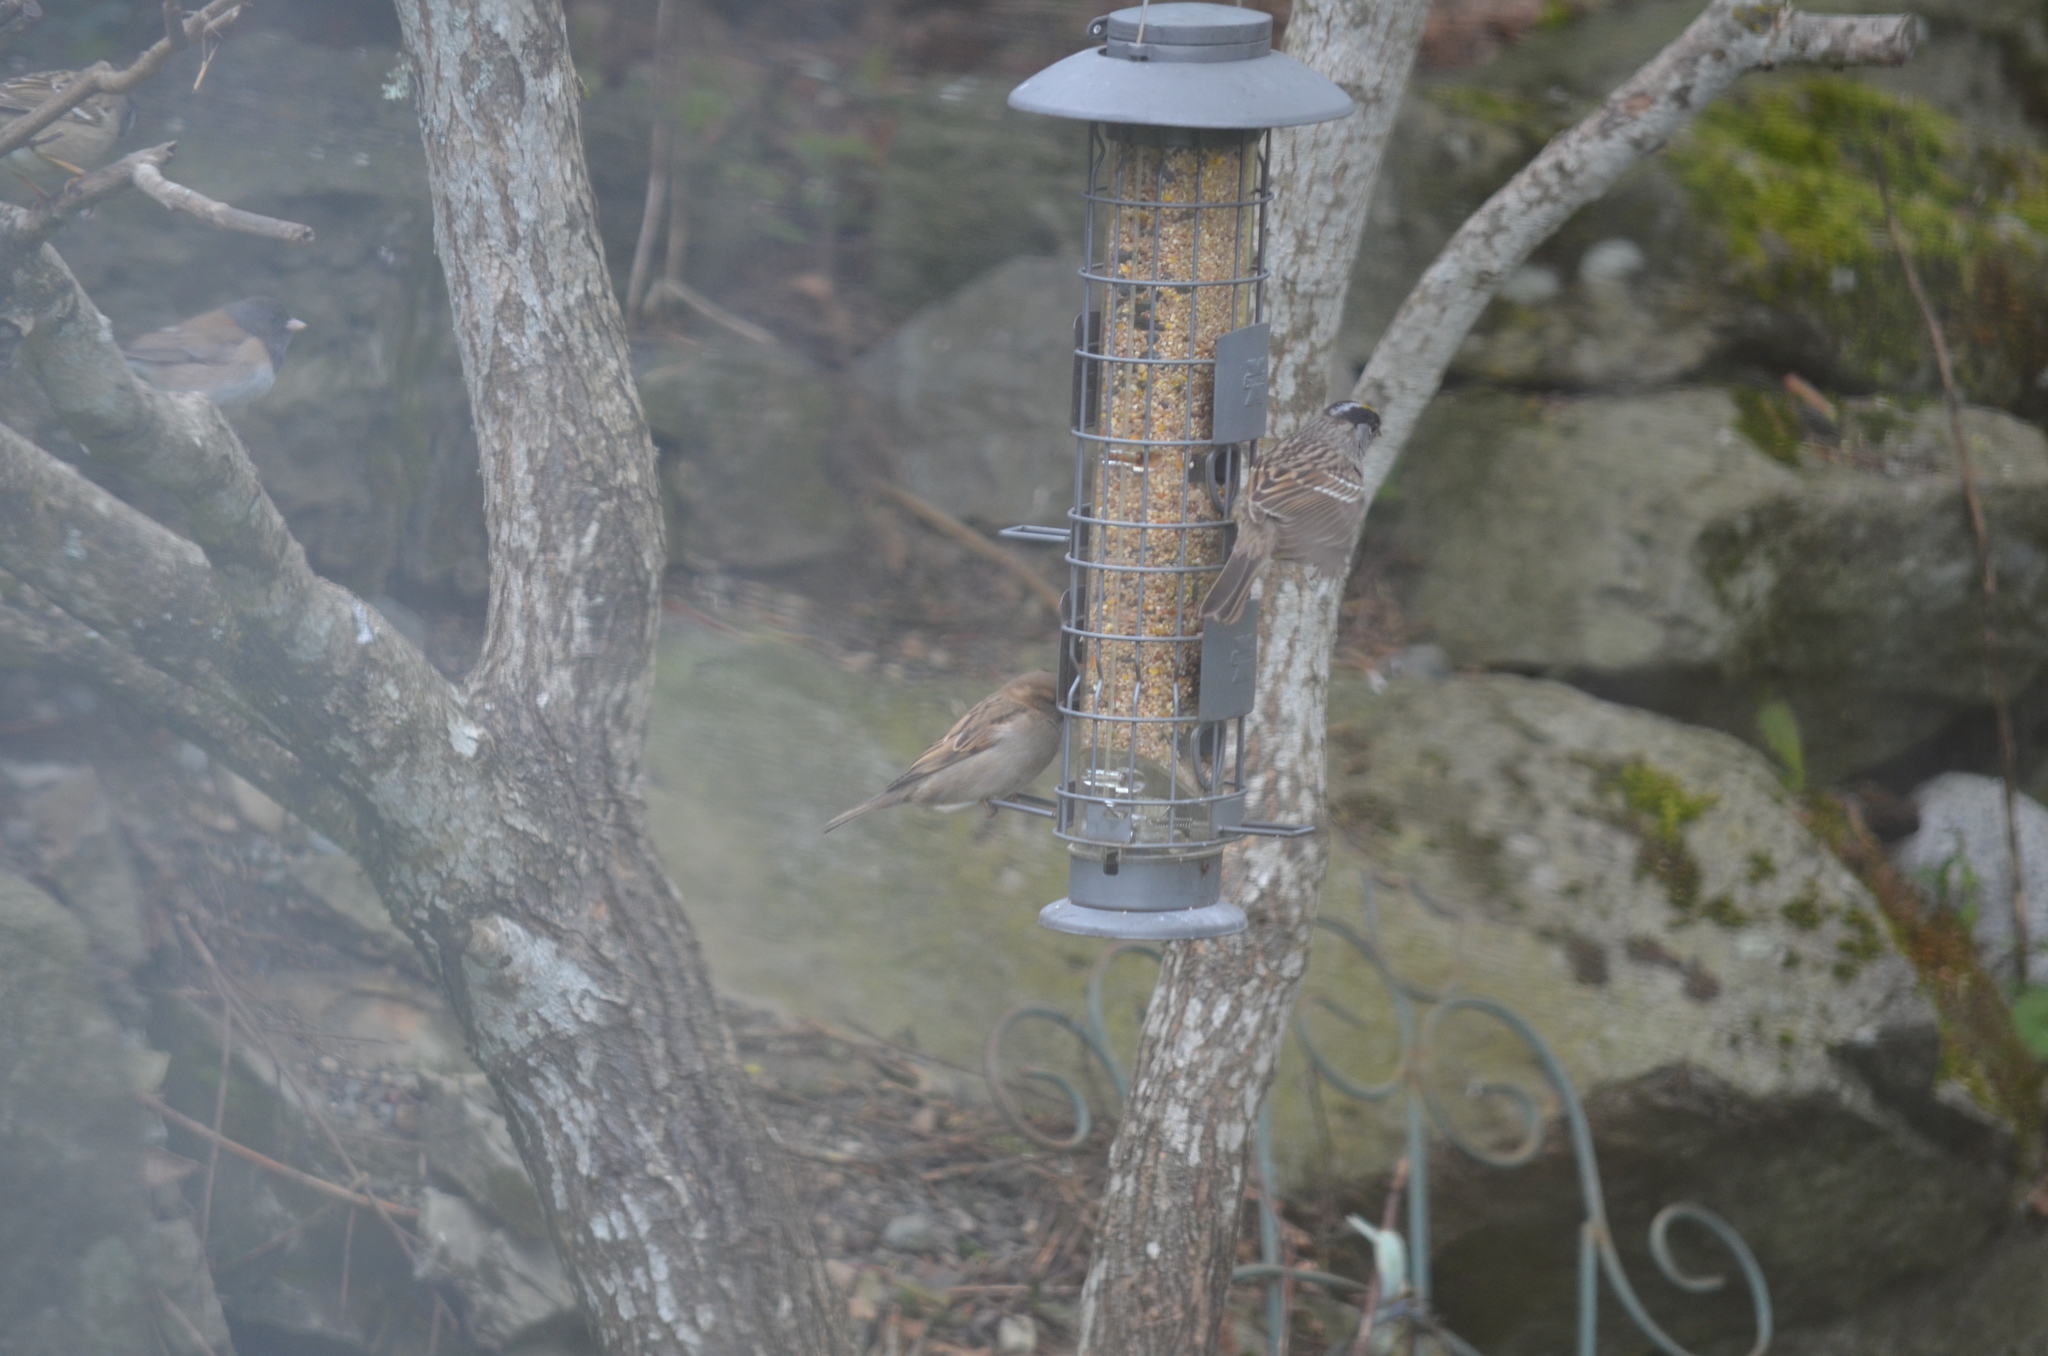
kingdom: Animalia
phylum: Chordata
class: Aves
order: Passeriformes
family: Passeridae
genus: Passer
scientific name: Passer domesticus
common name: House sparrow
